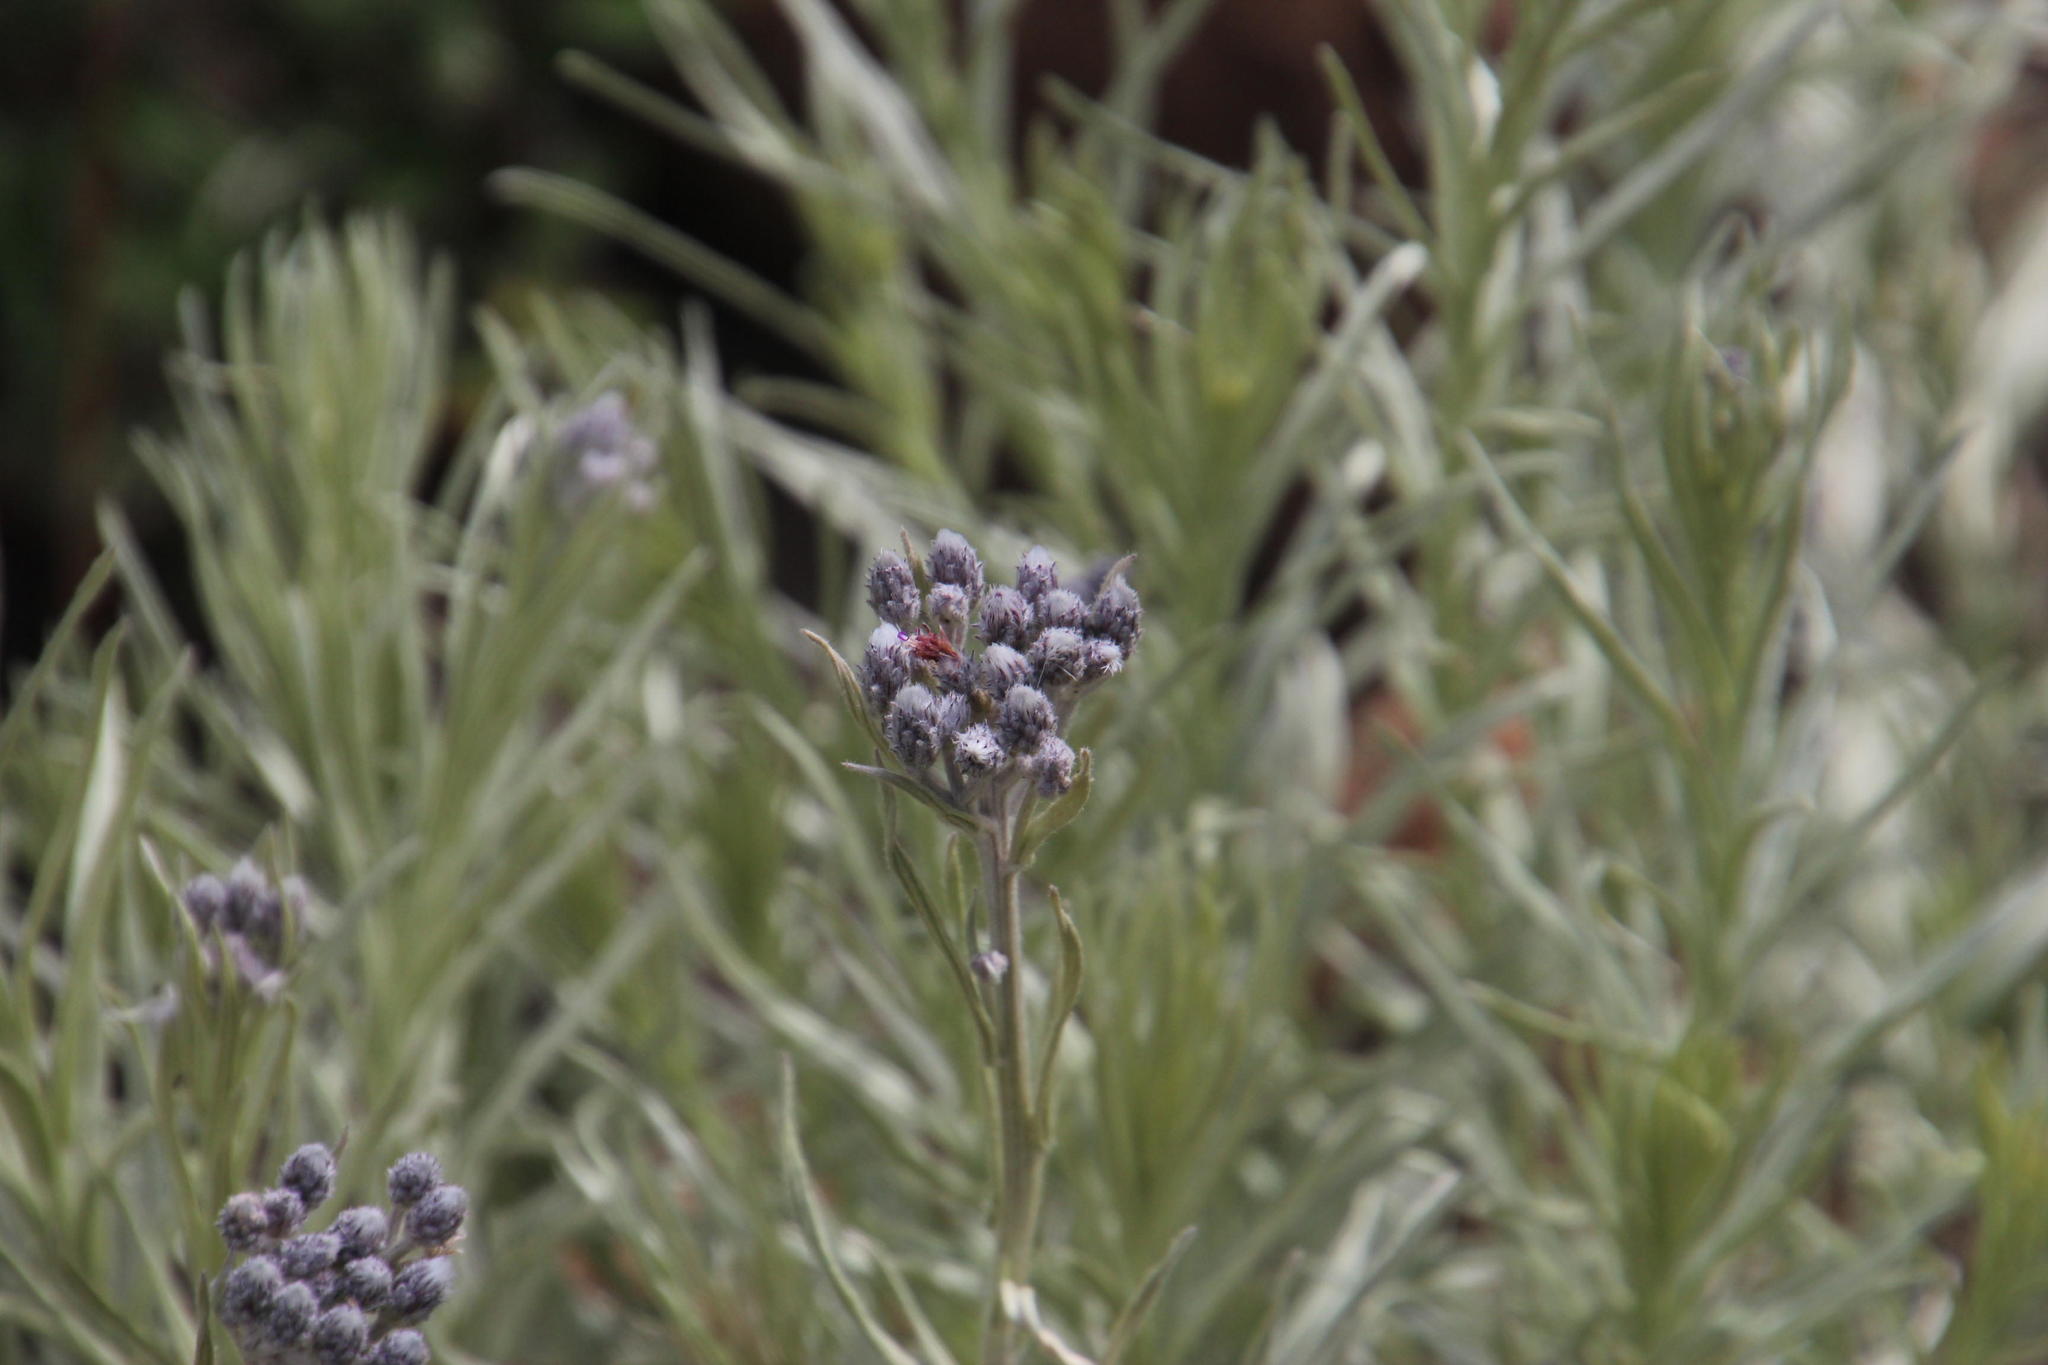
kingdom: Plantae
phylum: Tracheophyta
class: Magnoliopsida
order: Asterales
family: Asteraceae
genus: Hilliardiella
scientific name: Hilliardiella aristata
